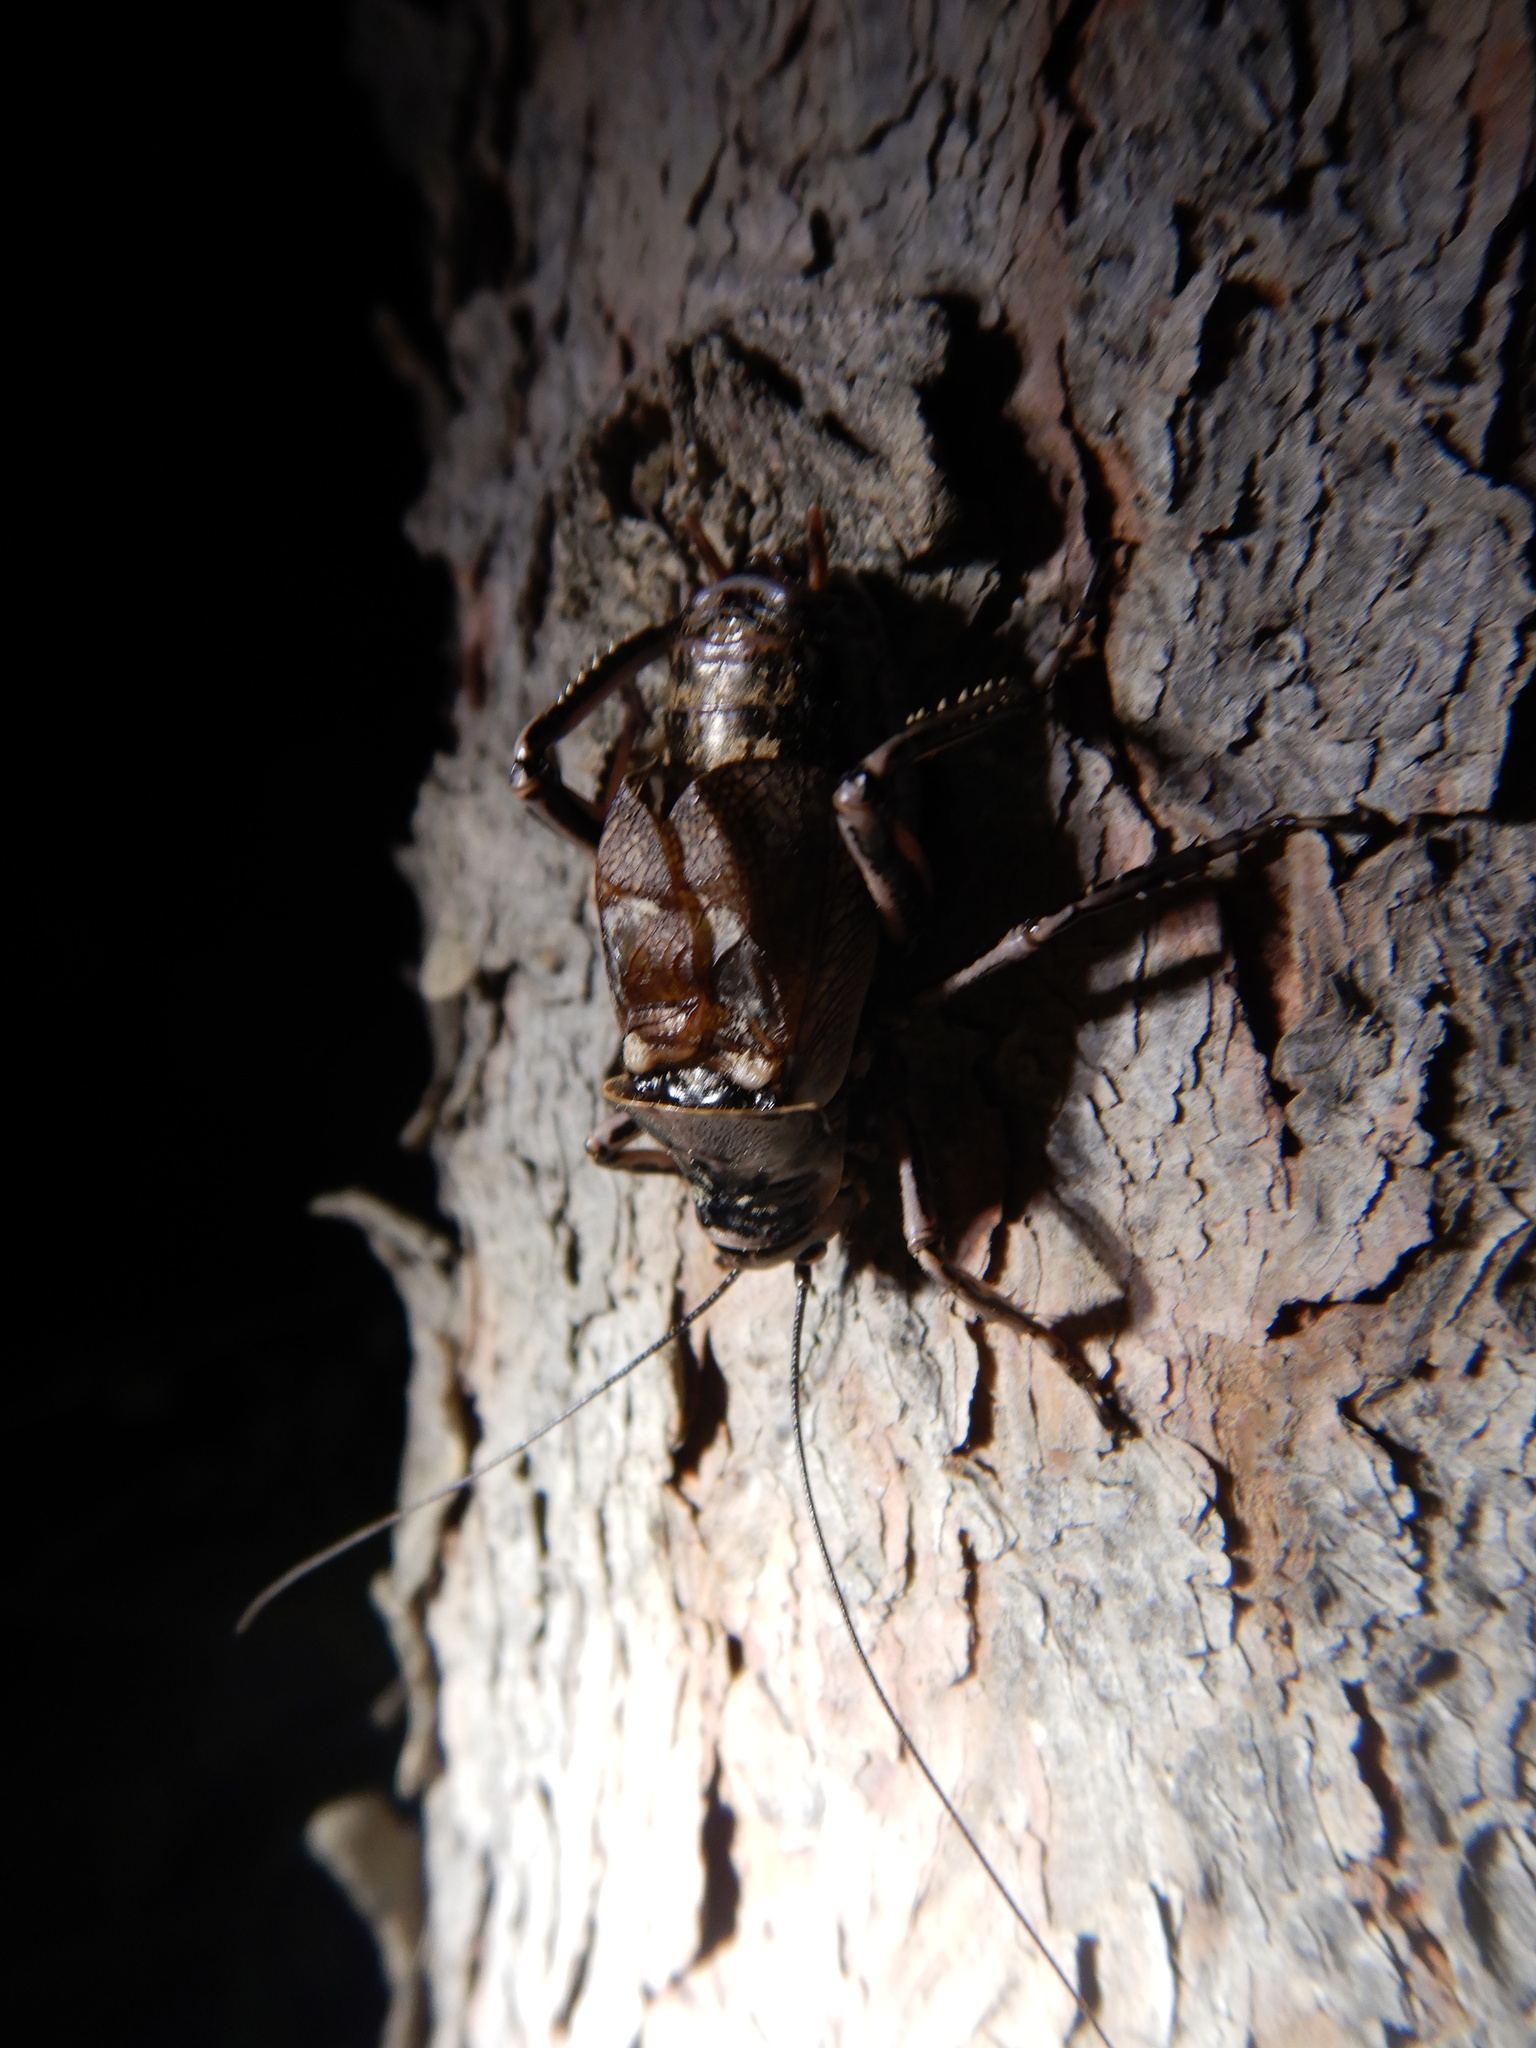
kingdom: Animalia
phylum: Arthropoda
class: Insecta
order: Orthoptera
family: Prophalangopsidae
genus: Cyphoderris
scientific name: Cyphoderris monstrosa
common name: Great grig
